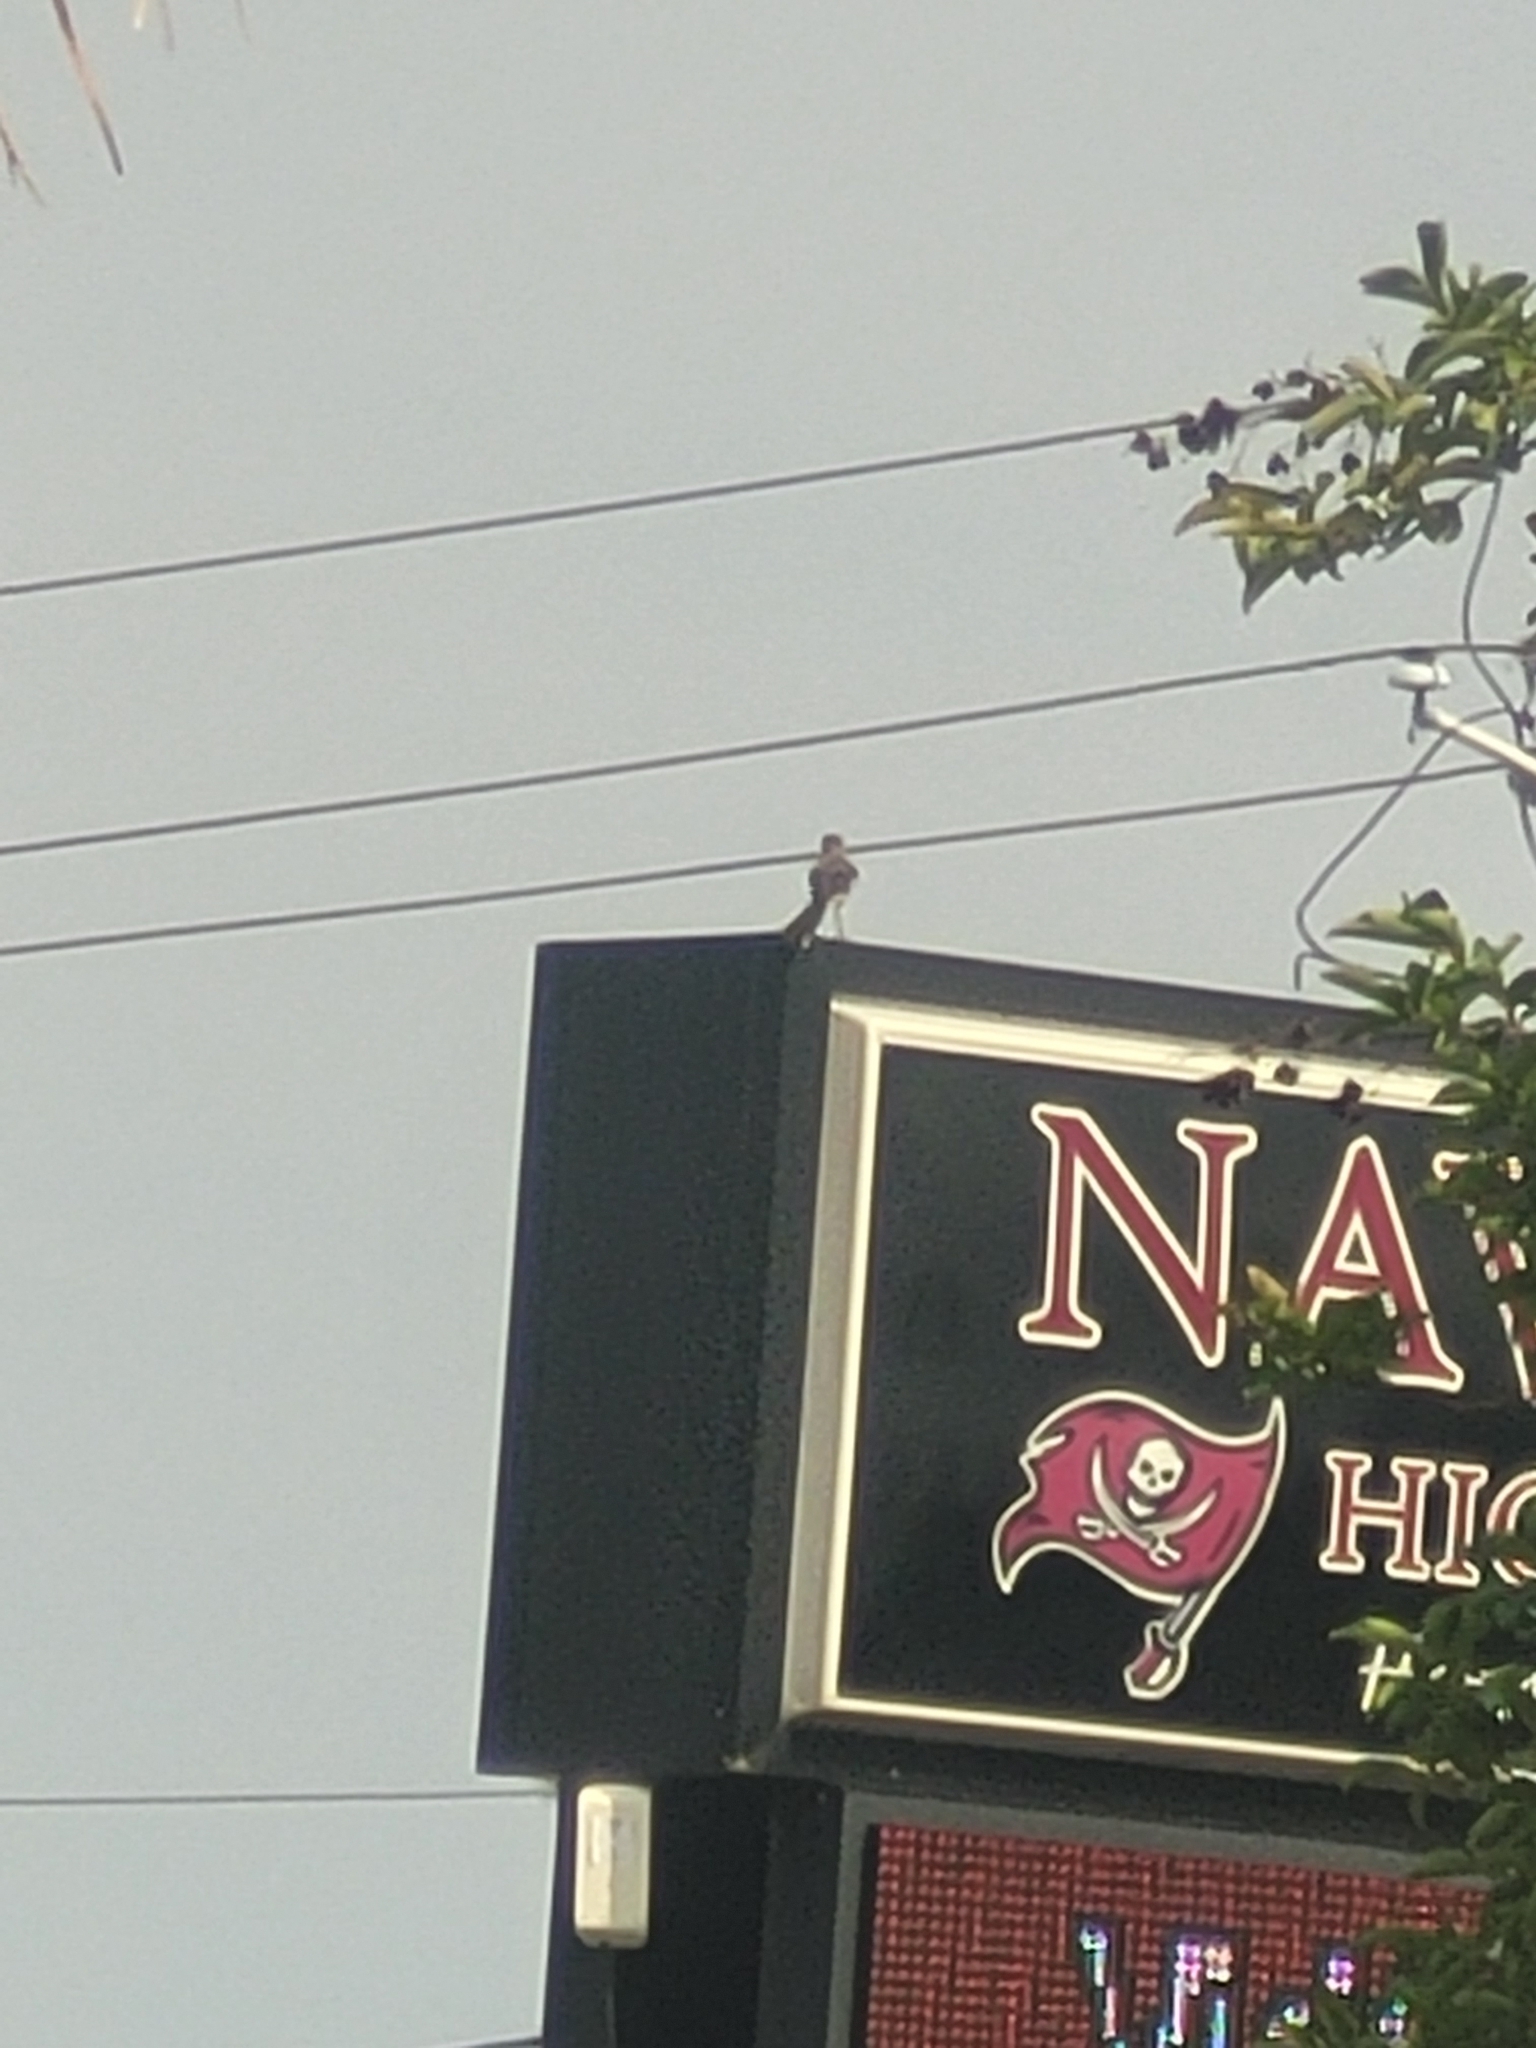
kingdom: Animalia
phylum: Chordata
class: Aves
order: Passeriformes
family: Mimidae
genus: Mimus
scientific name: Mimus polyglottos
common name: Northern mockingbird
